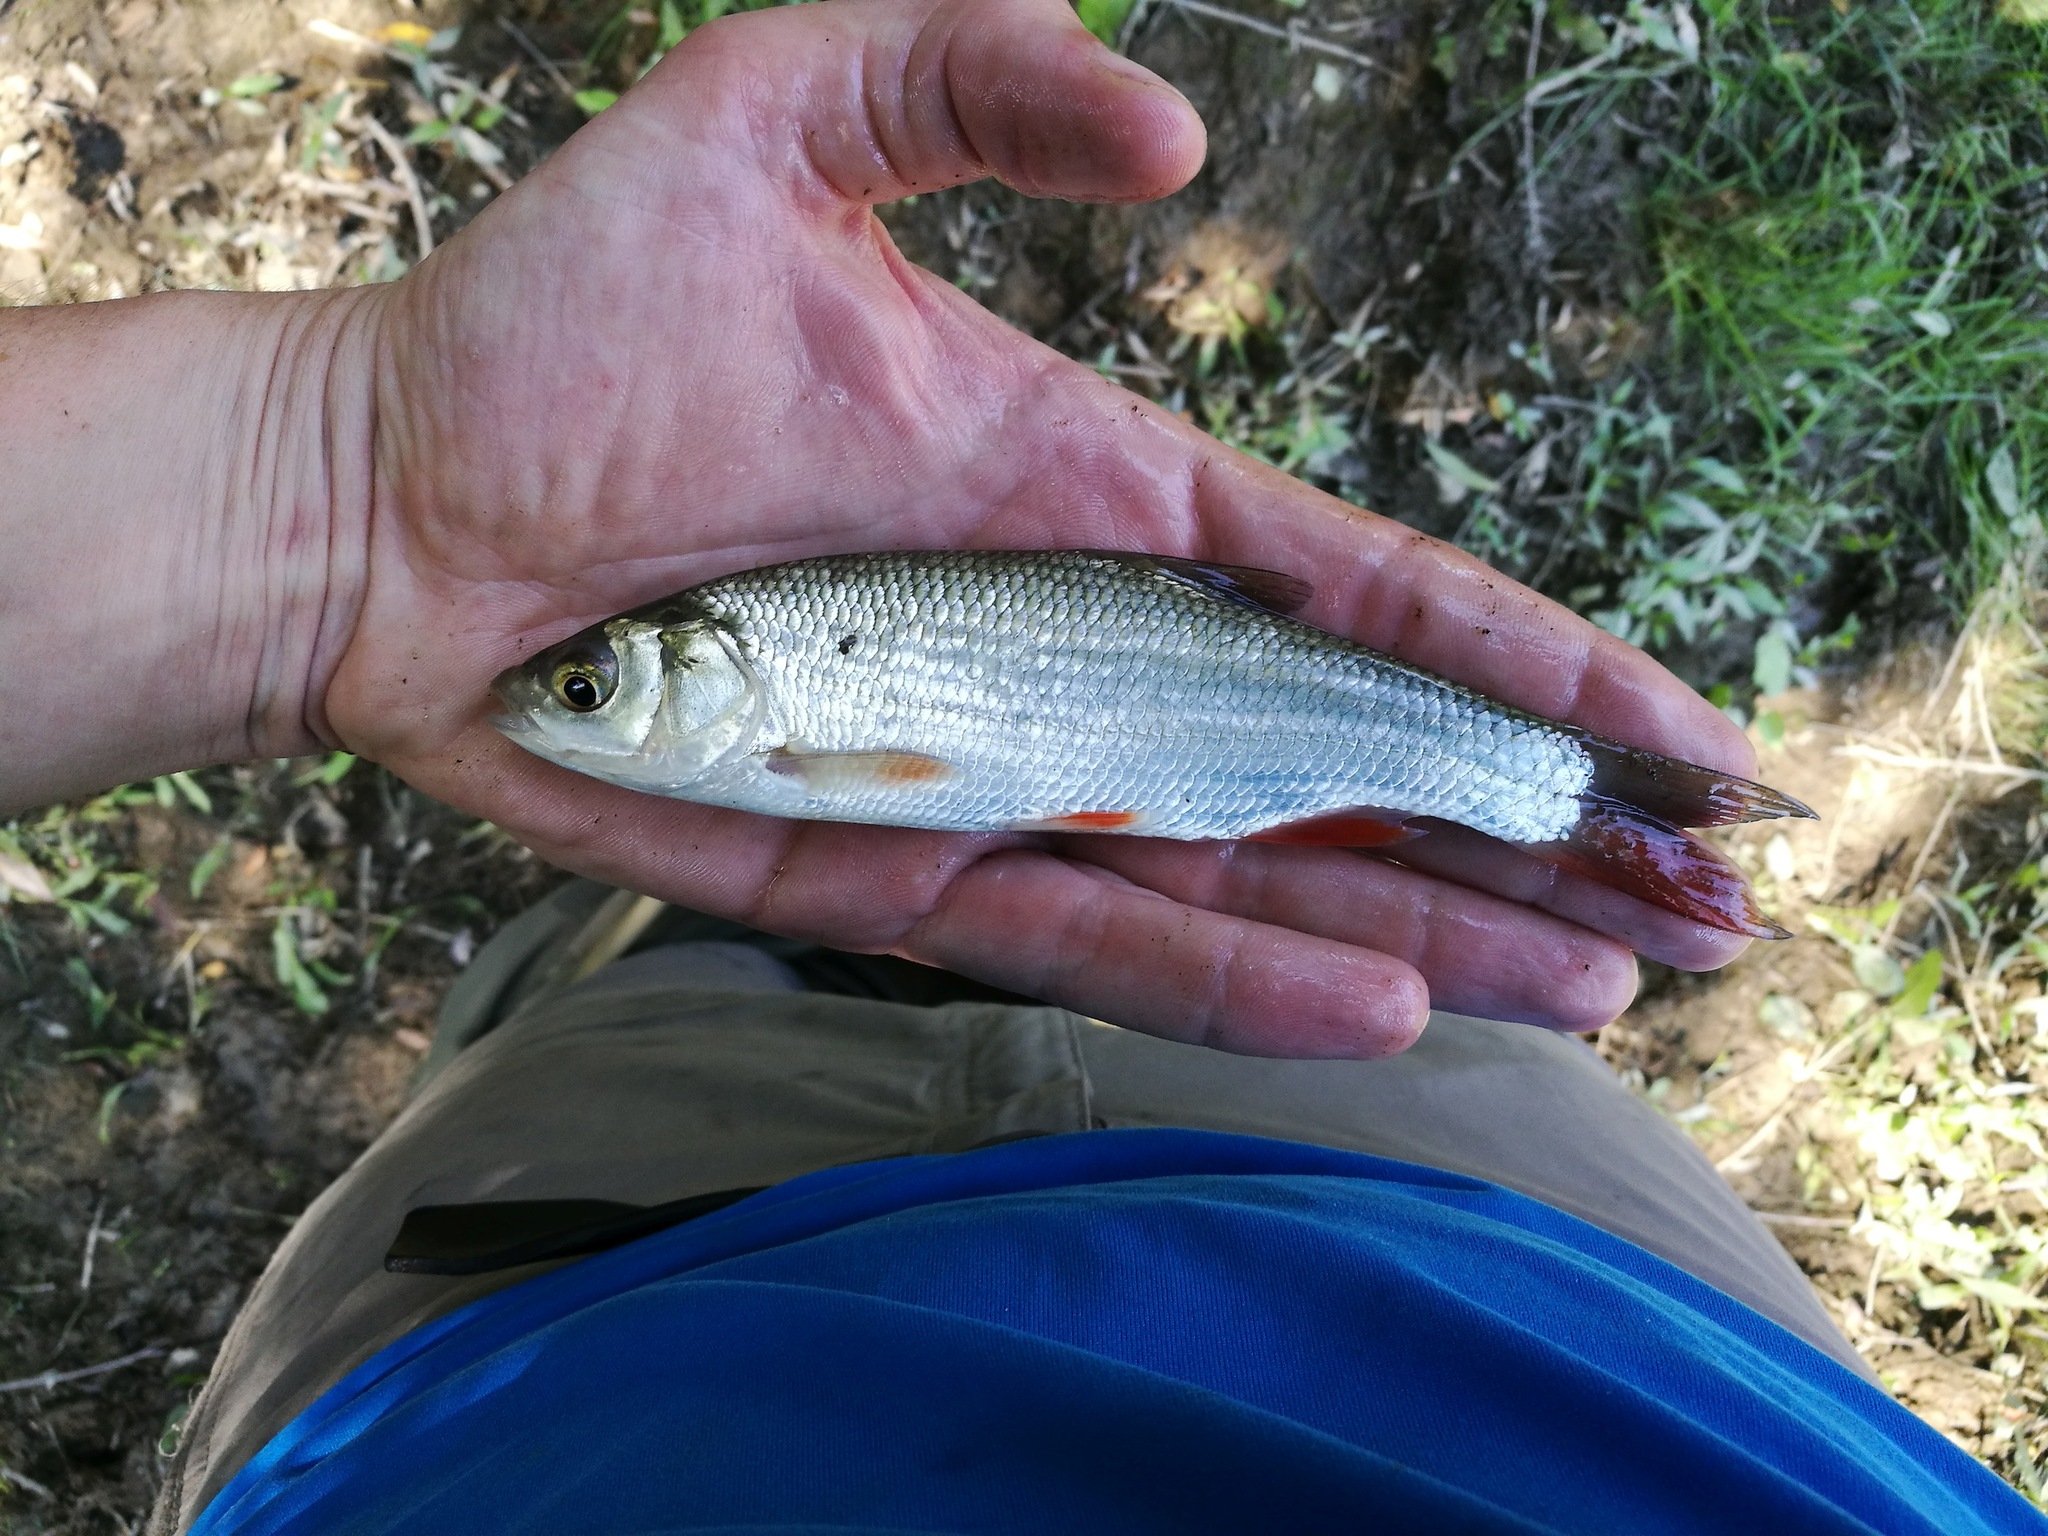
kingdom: Animalia
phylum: Chordata
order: Cypriniformes
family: Cyprinidae
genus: Leuciscus
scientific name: Leuciscus idus
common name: Ide
